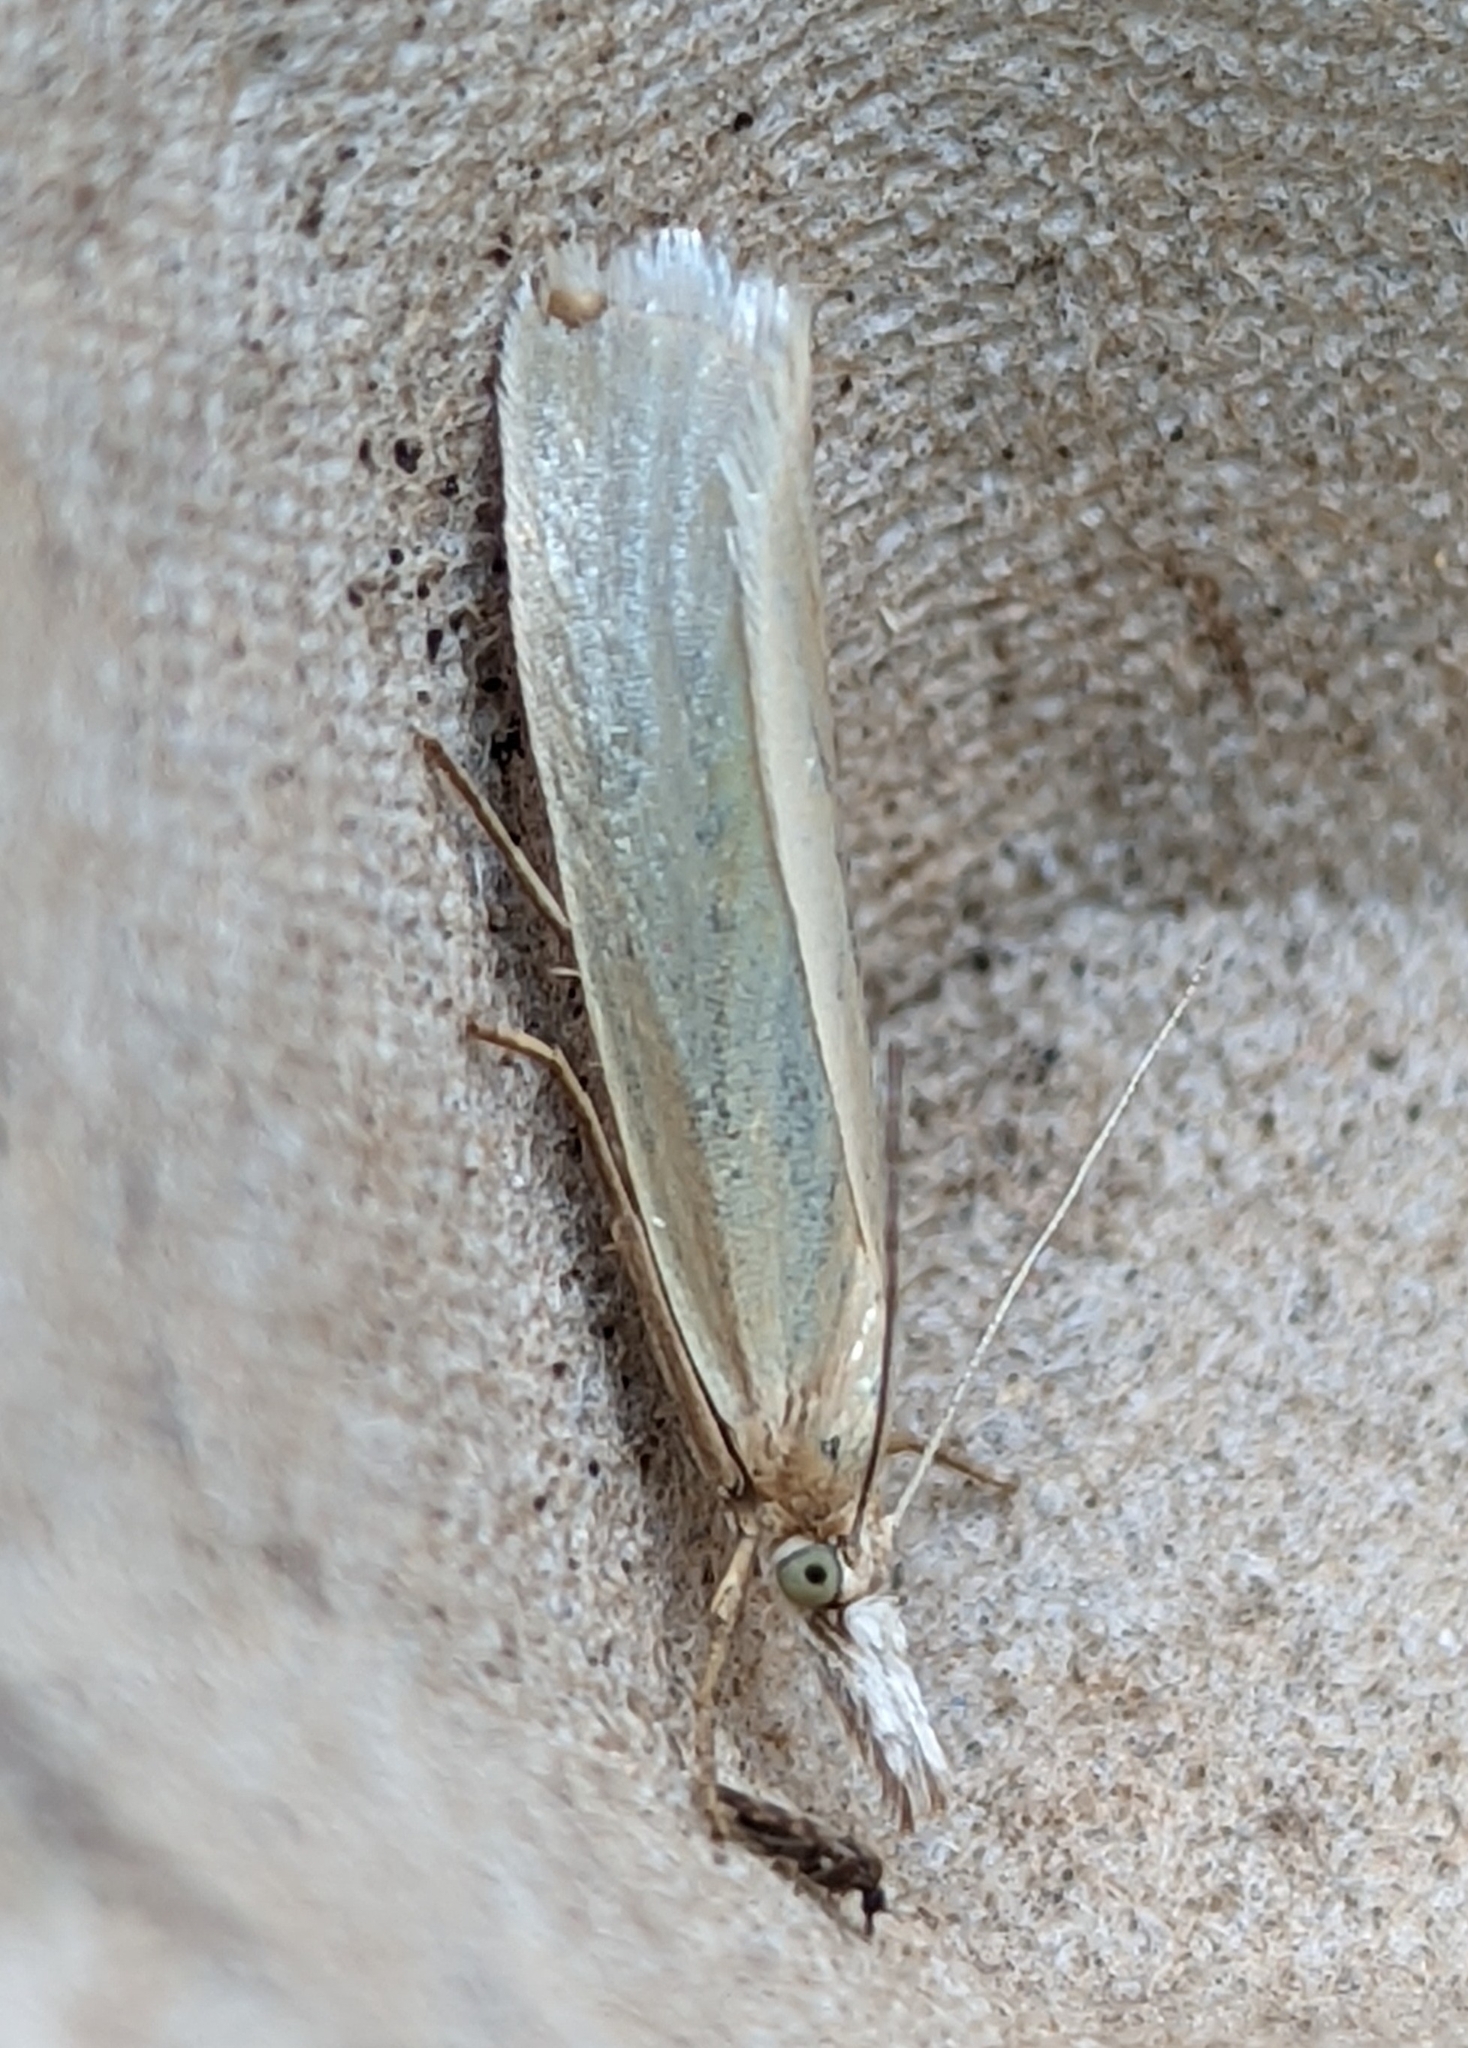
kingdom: Animalia
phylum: Arthropoda
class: Insecta
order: Lepidoptera
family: Crambidae
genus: Crambus
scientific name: Crambus perlellus
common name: Yellow satin veneer
